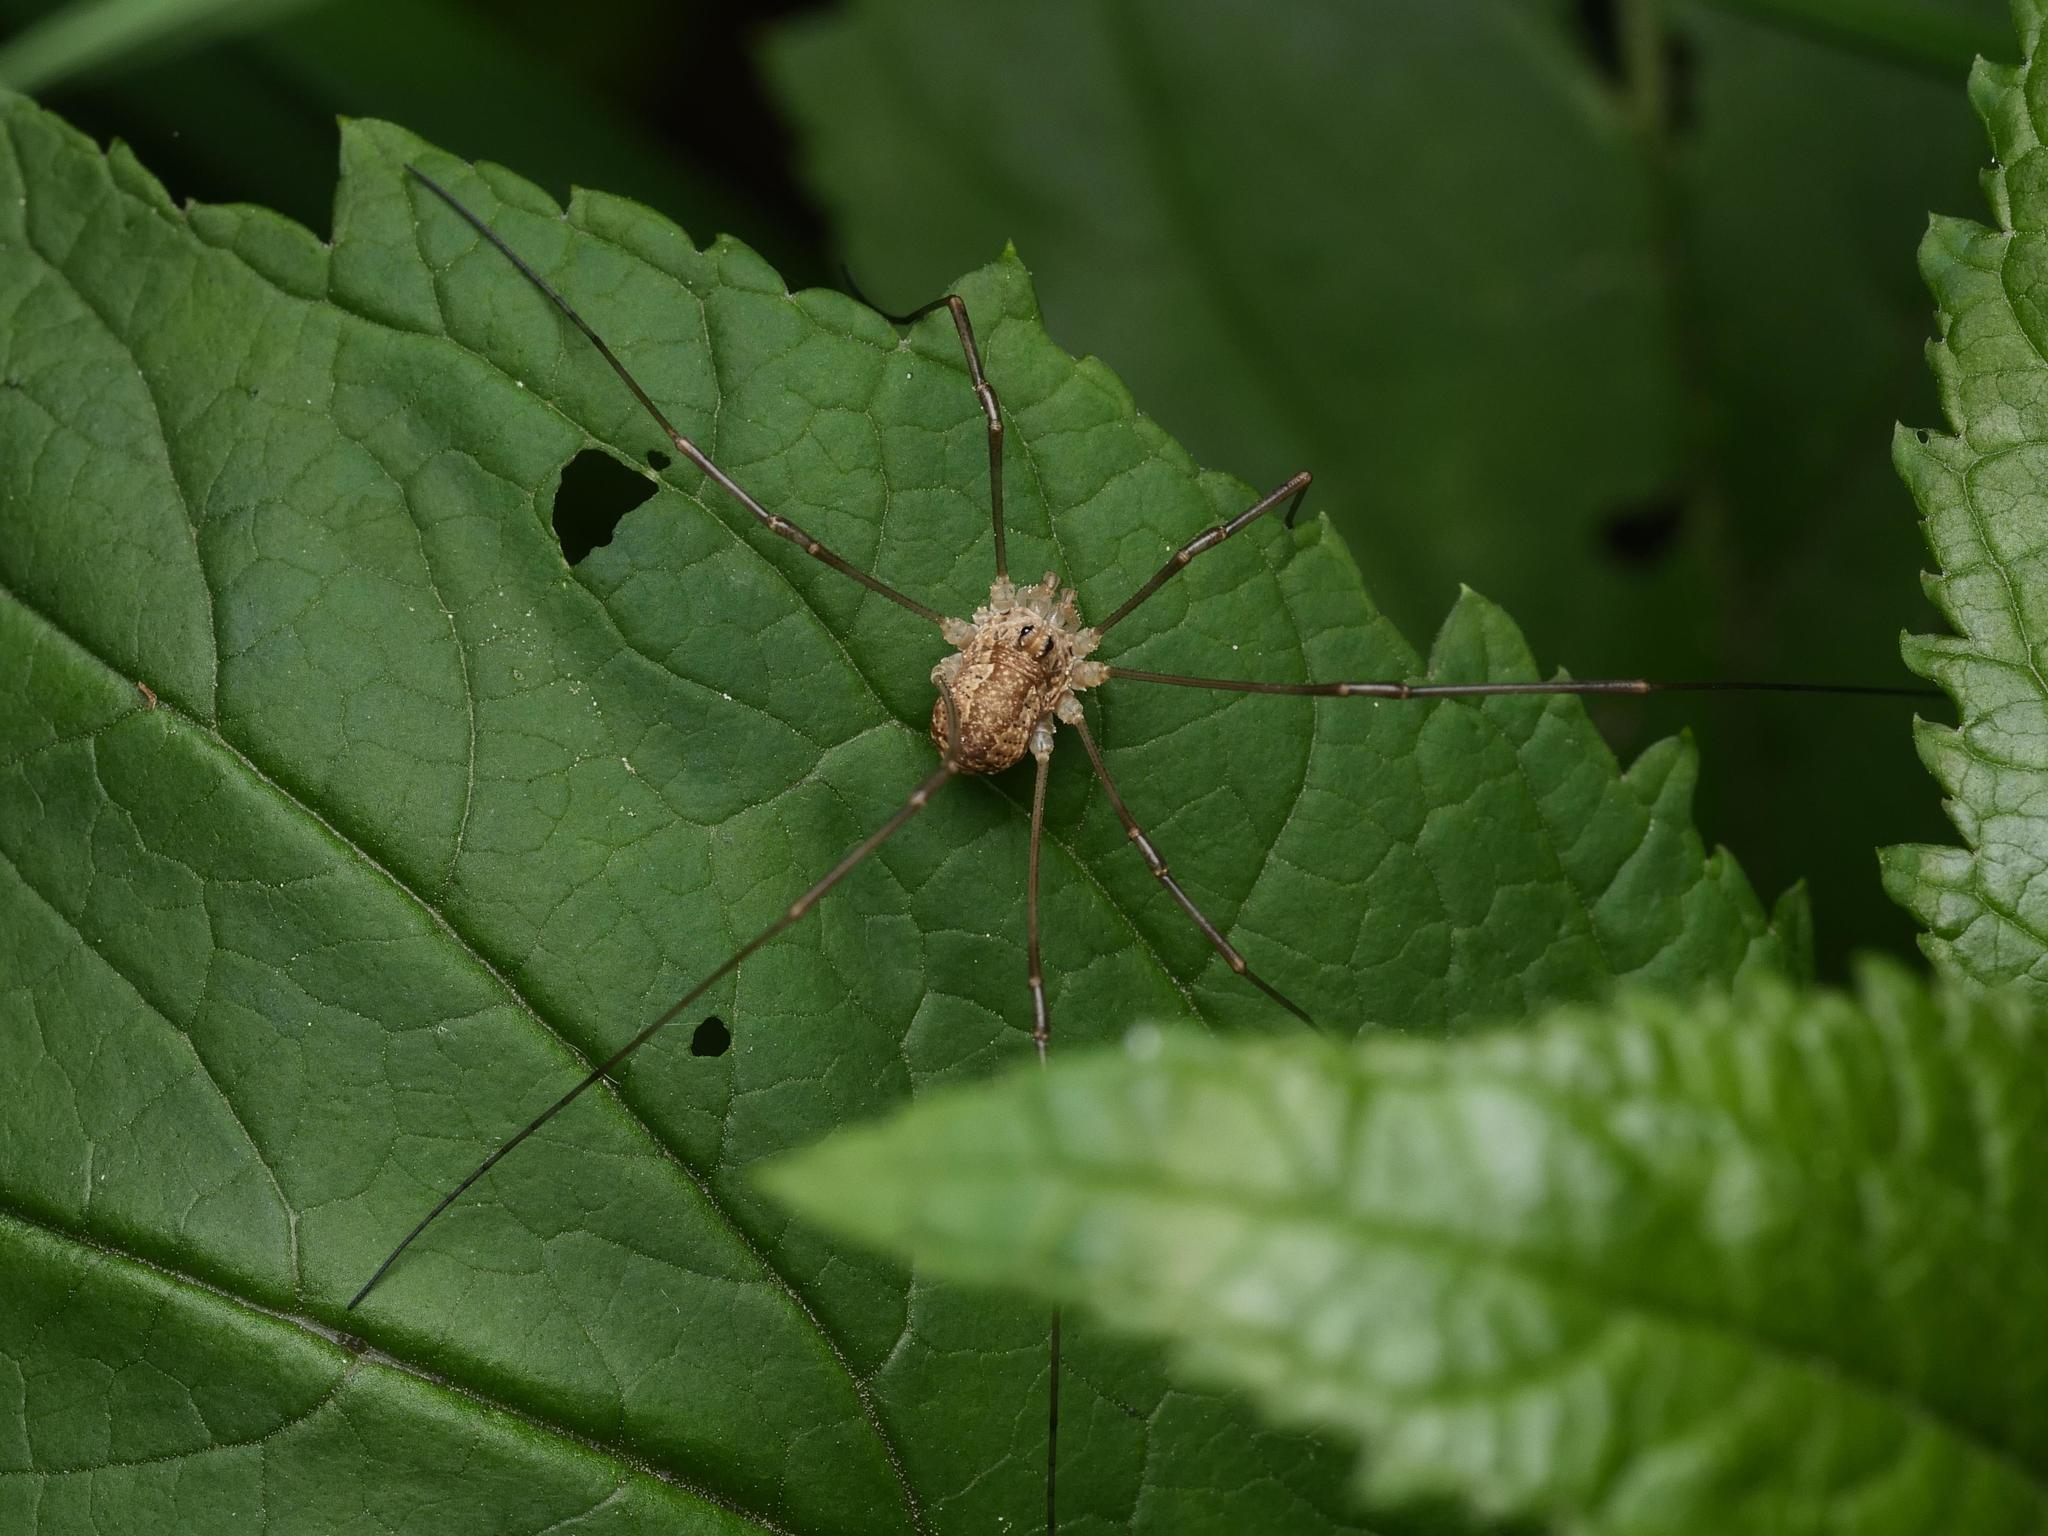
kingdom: Animalia
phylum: Arthropoda
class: Arachnida
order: Opiliones
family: Phalangiidae
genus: Rilaena
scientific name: Rilaena triangularis
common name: Spring harvestman
